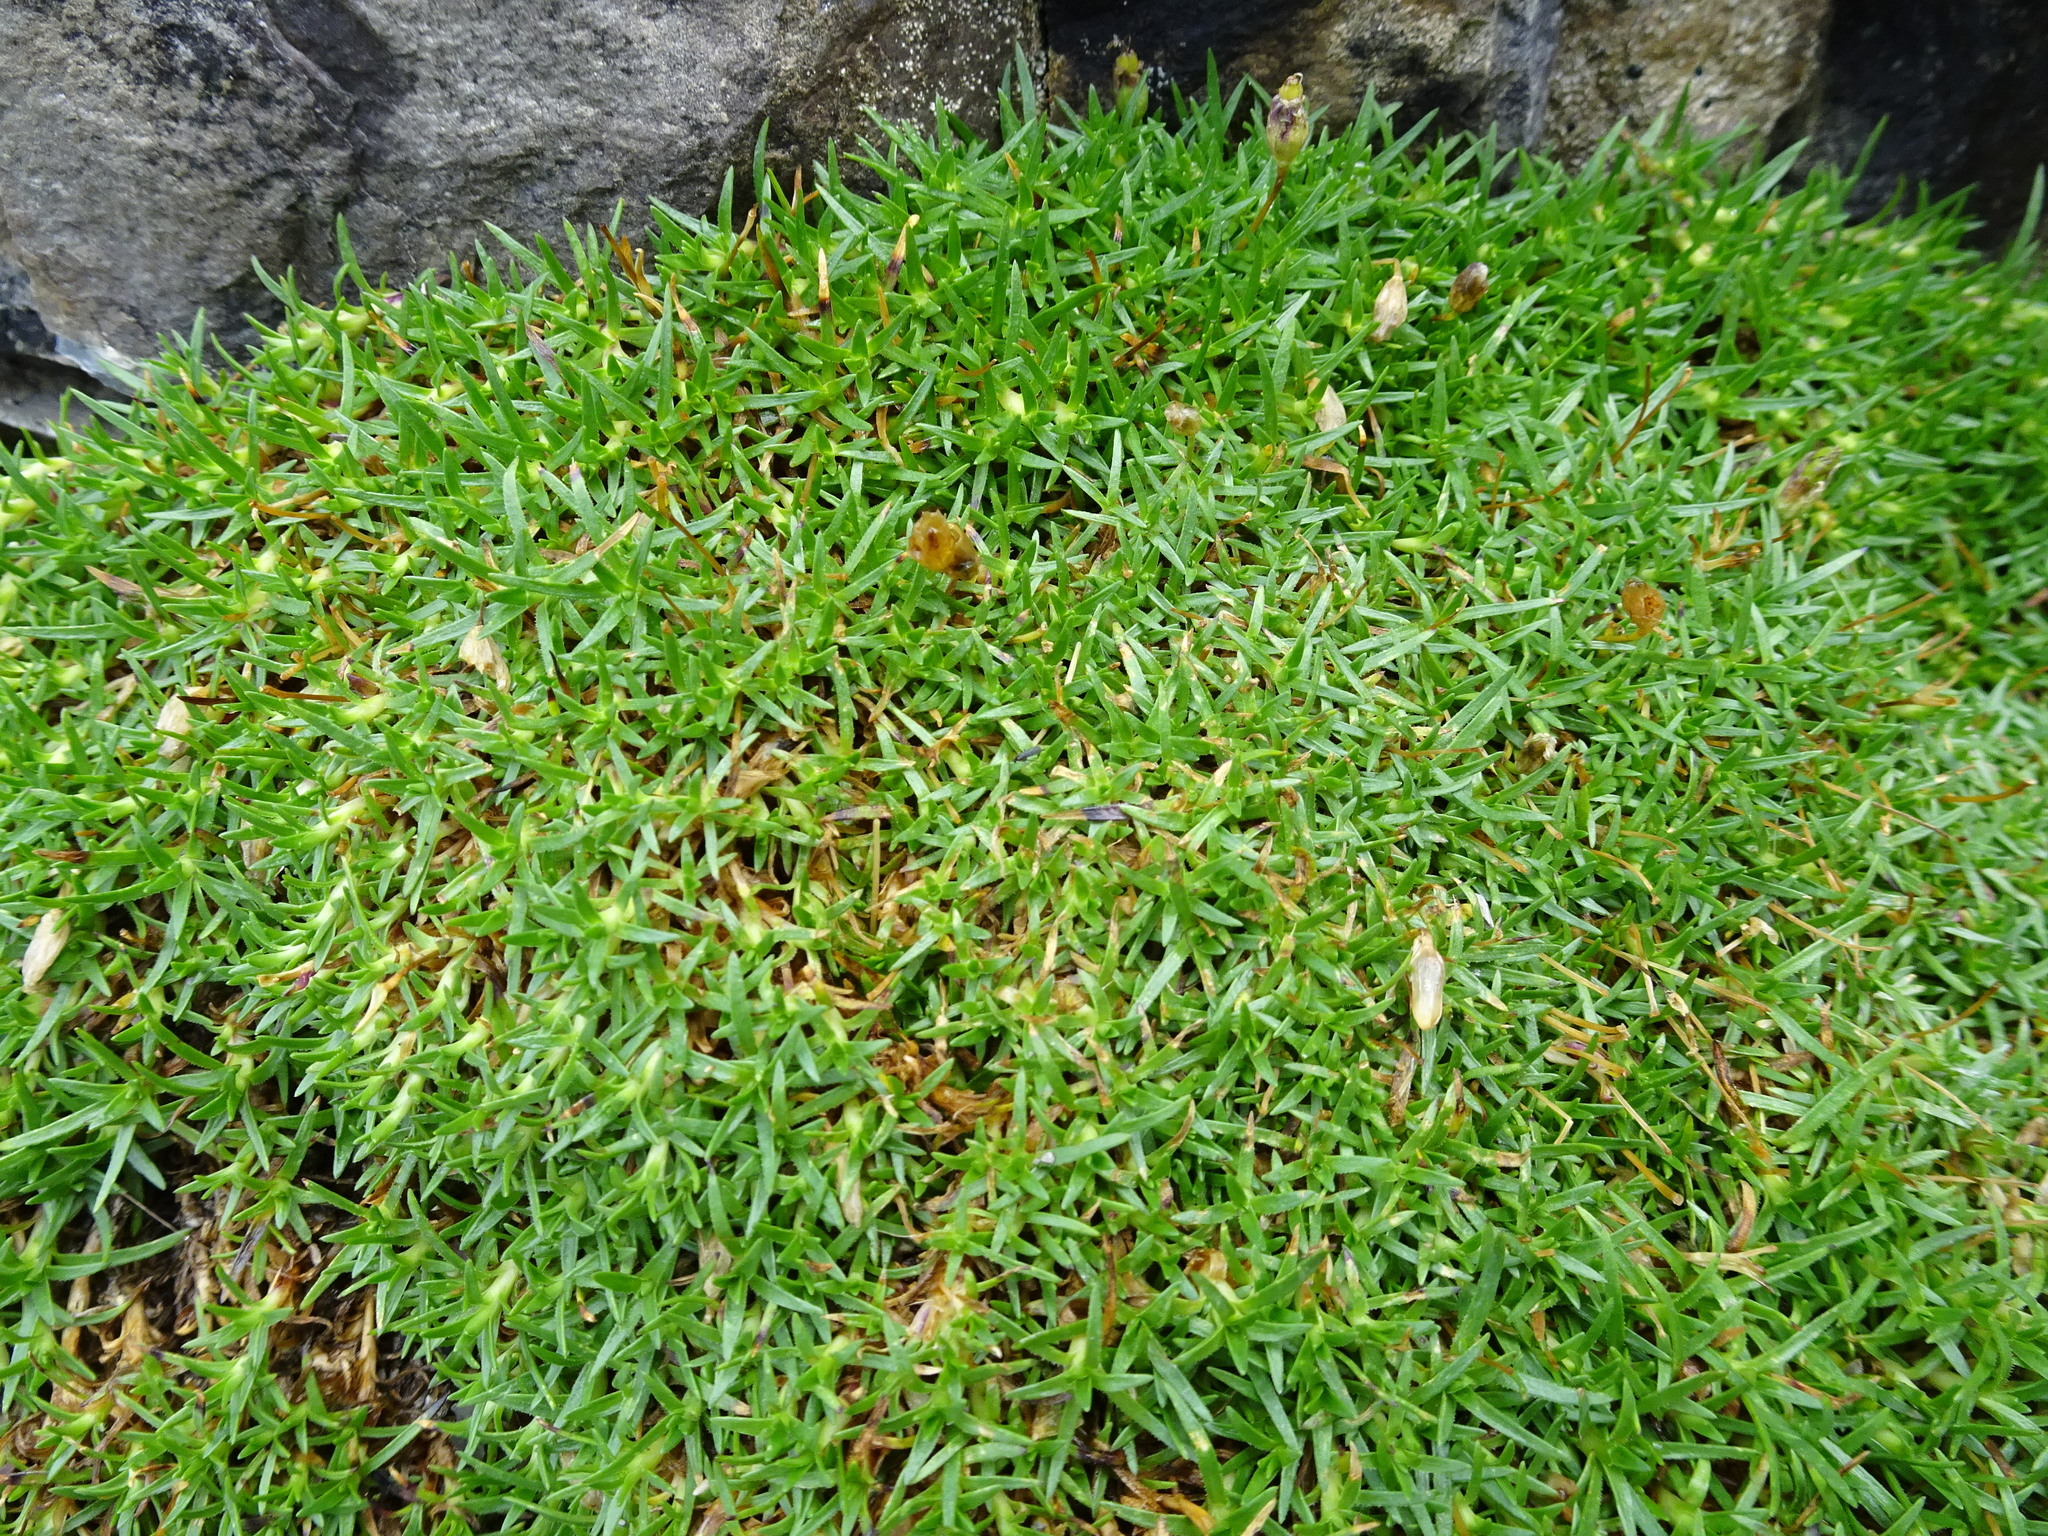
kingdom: Plantae
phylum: Tracheophyta
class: Magnoliopsida
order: Caryophyllales
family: Caryophyllaceae
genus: Silene
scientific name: Silene acaulis
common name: Moss campion
